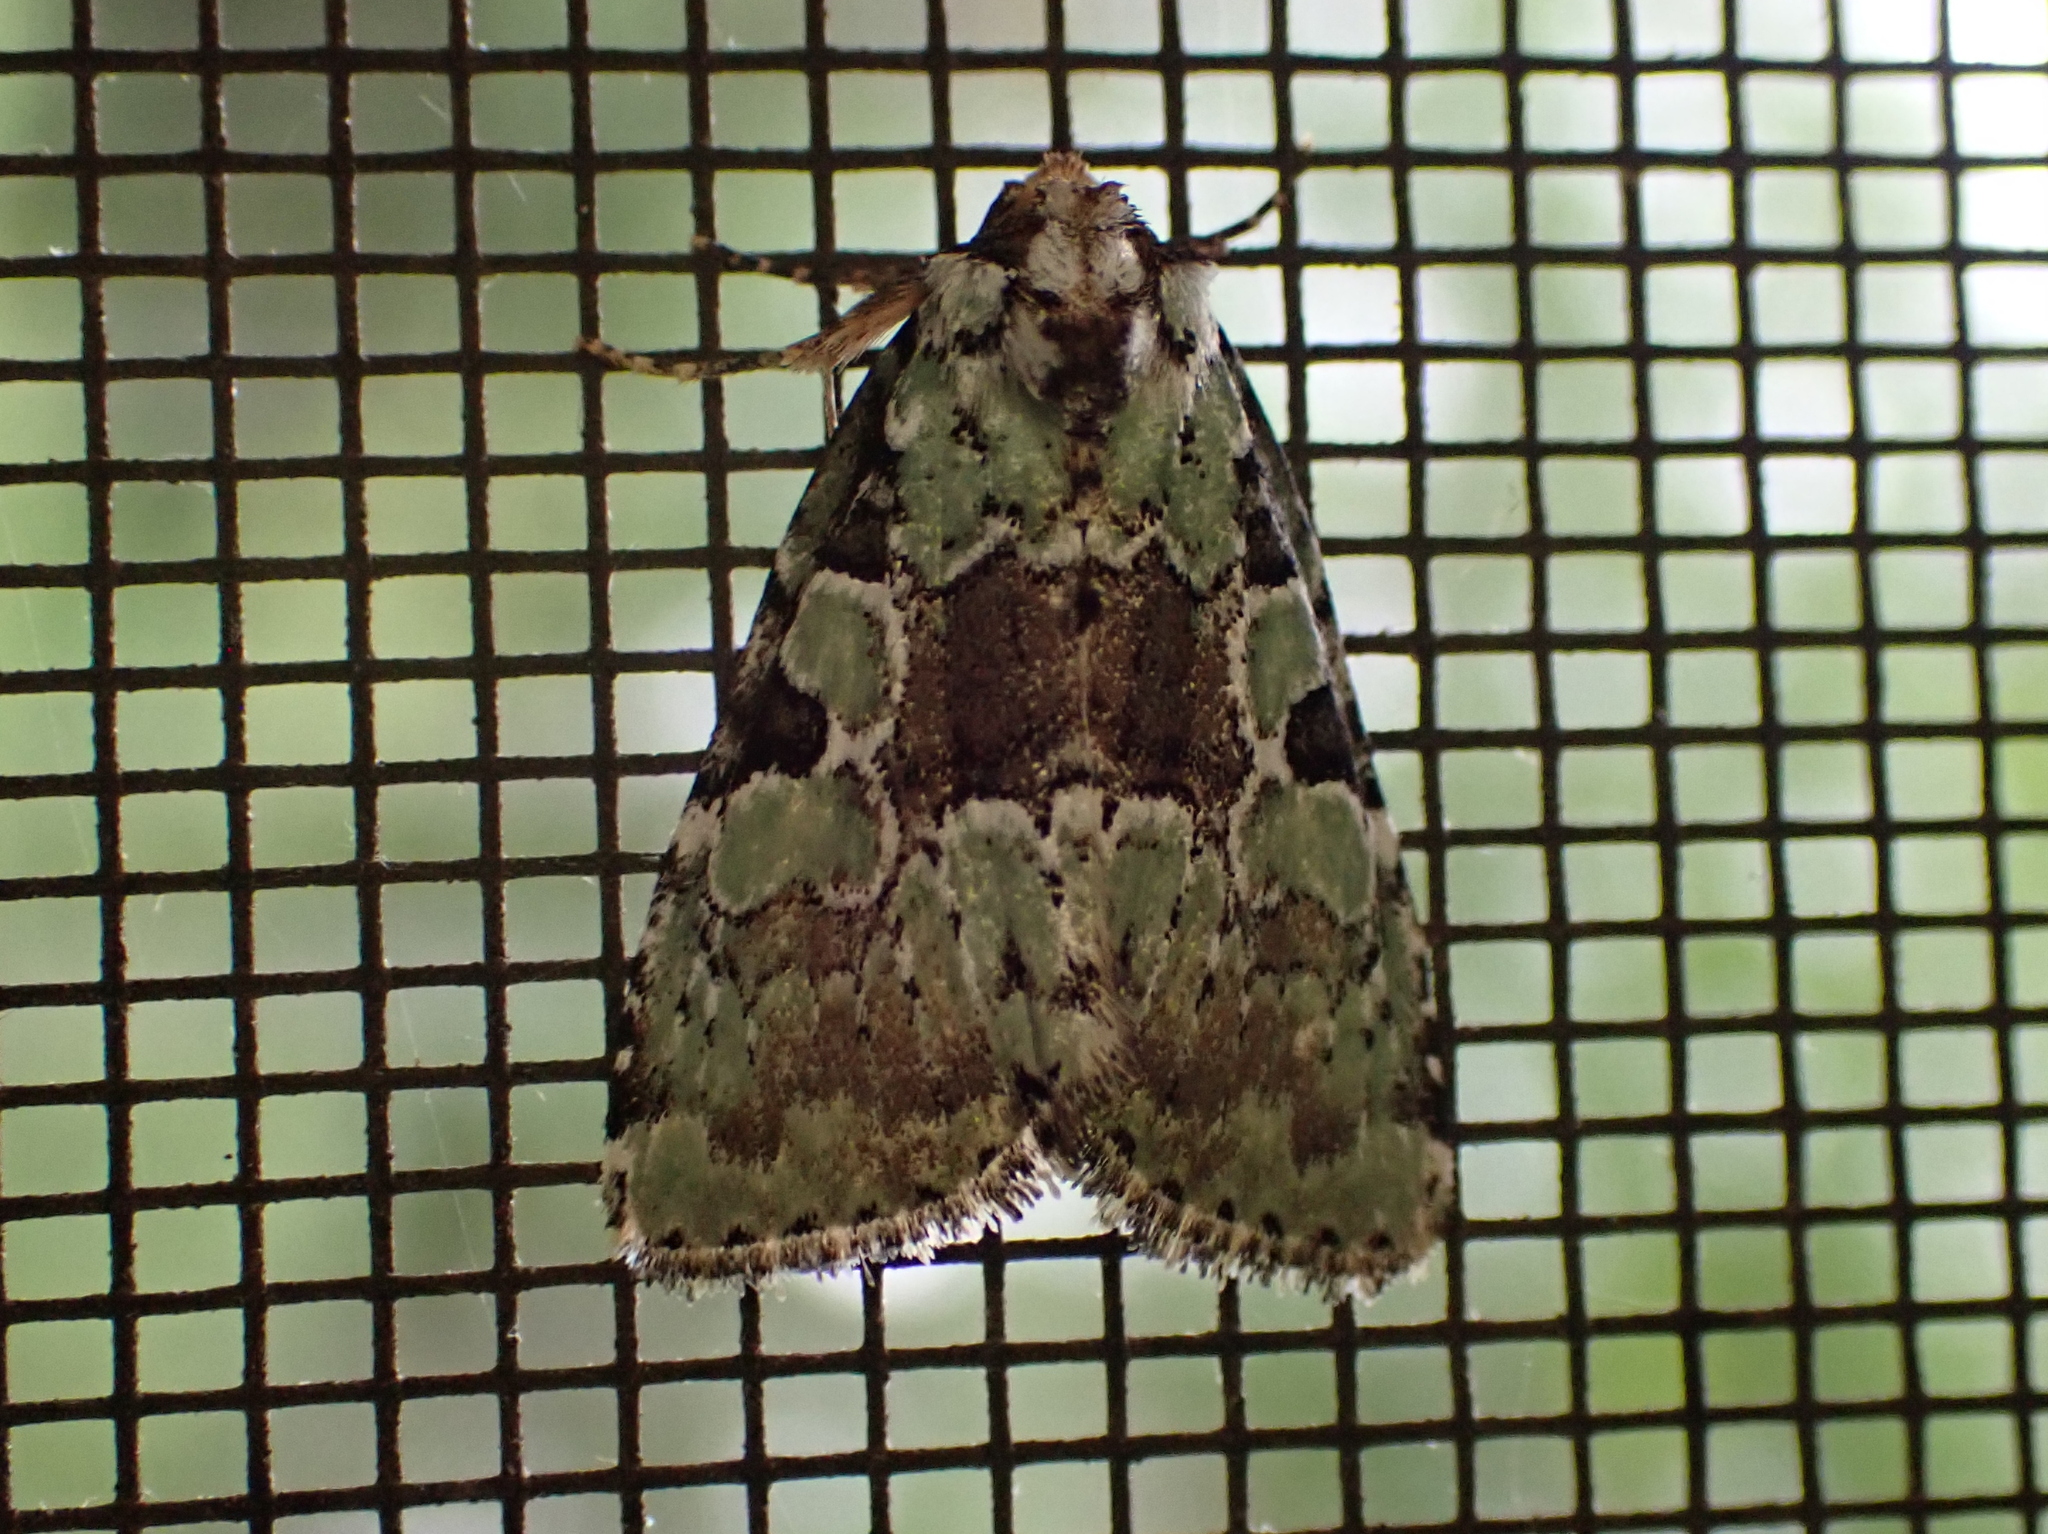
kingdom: Animalia
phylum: Arthropoda
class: Insecta
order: Lepidoptera
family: Noctuidae
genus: Leuconycta
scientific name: Leuconycta lepidula
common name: Marbled-green leuconycta moth
